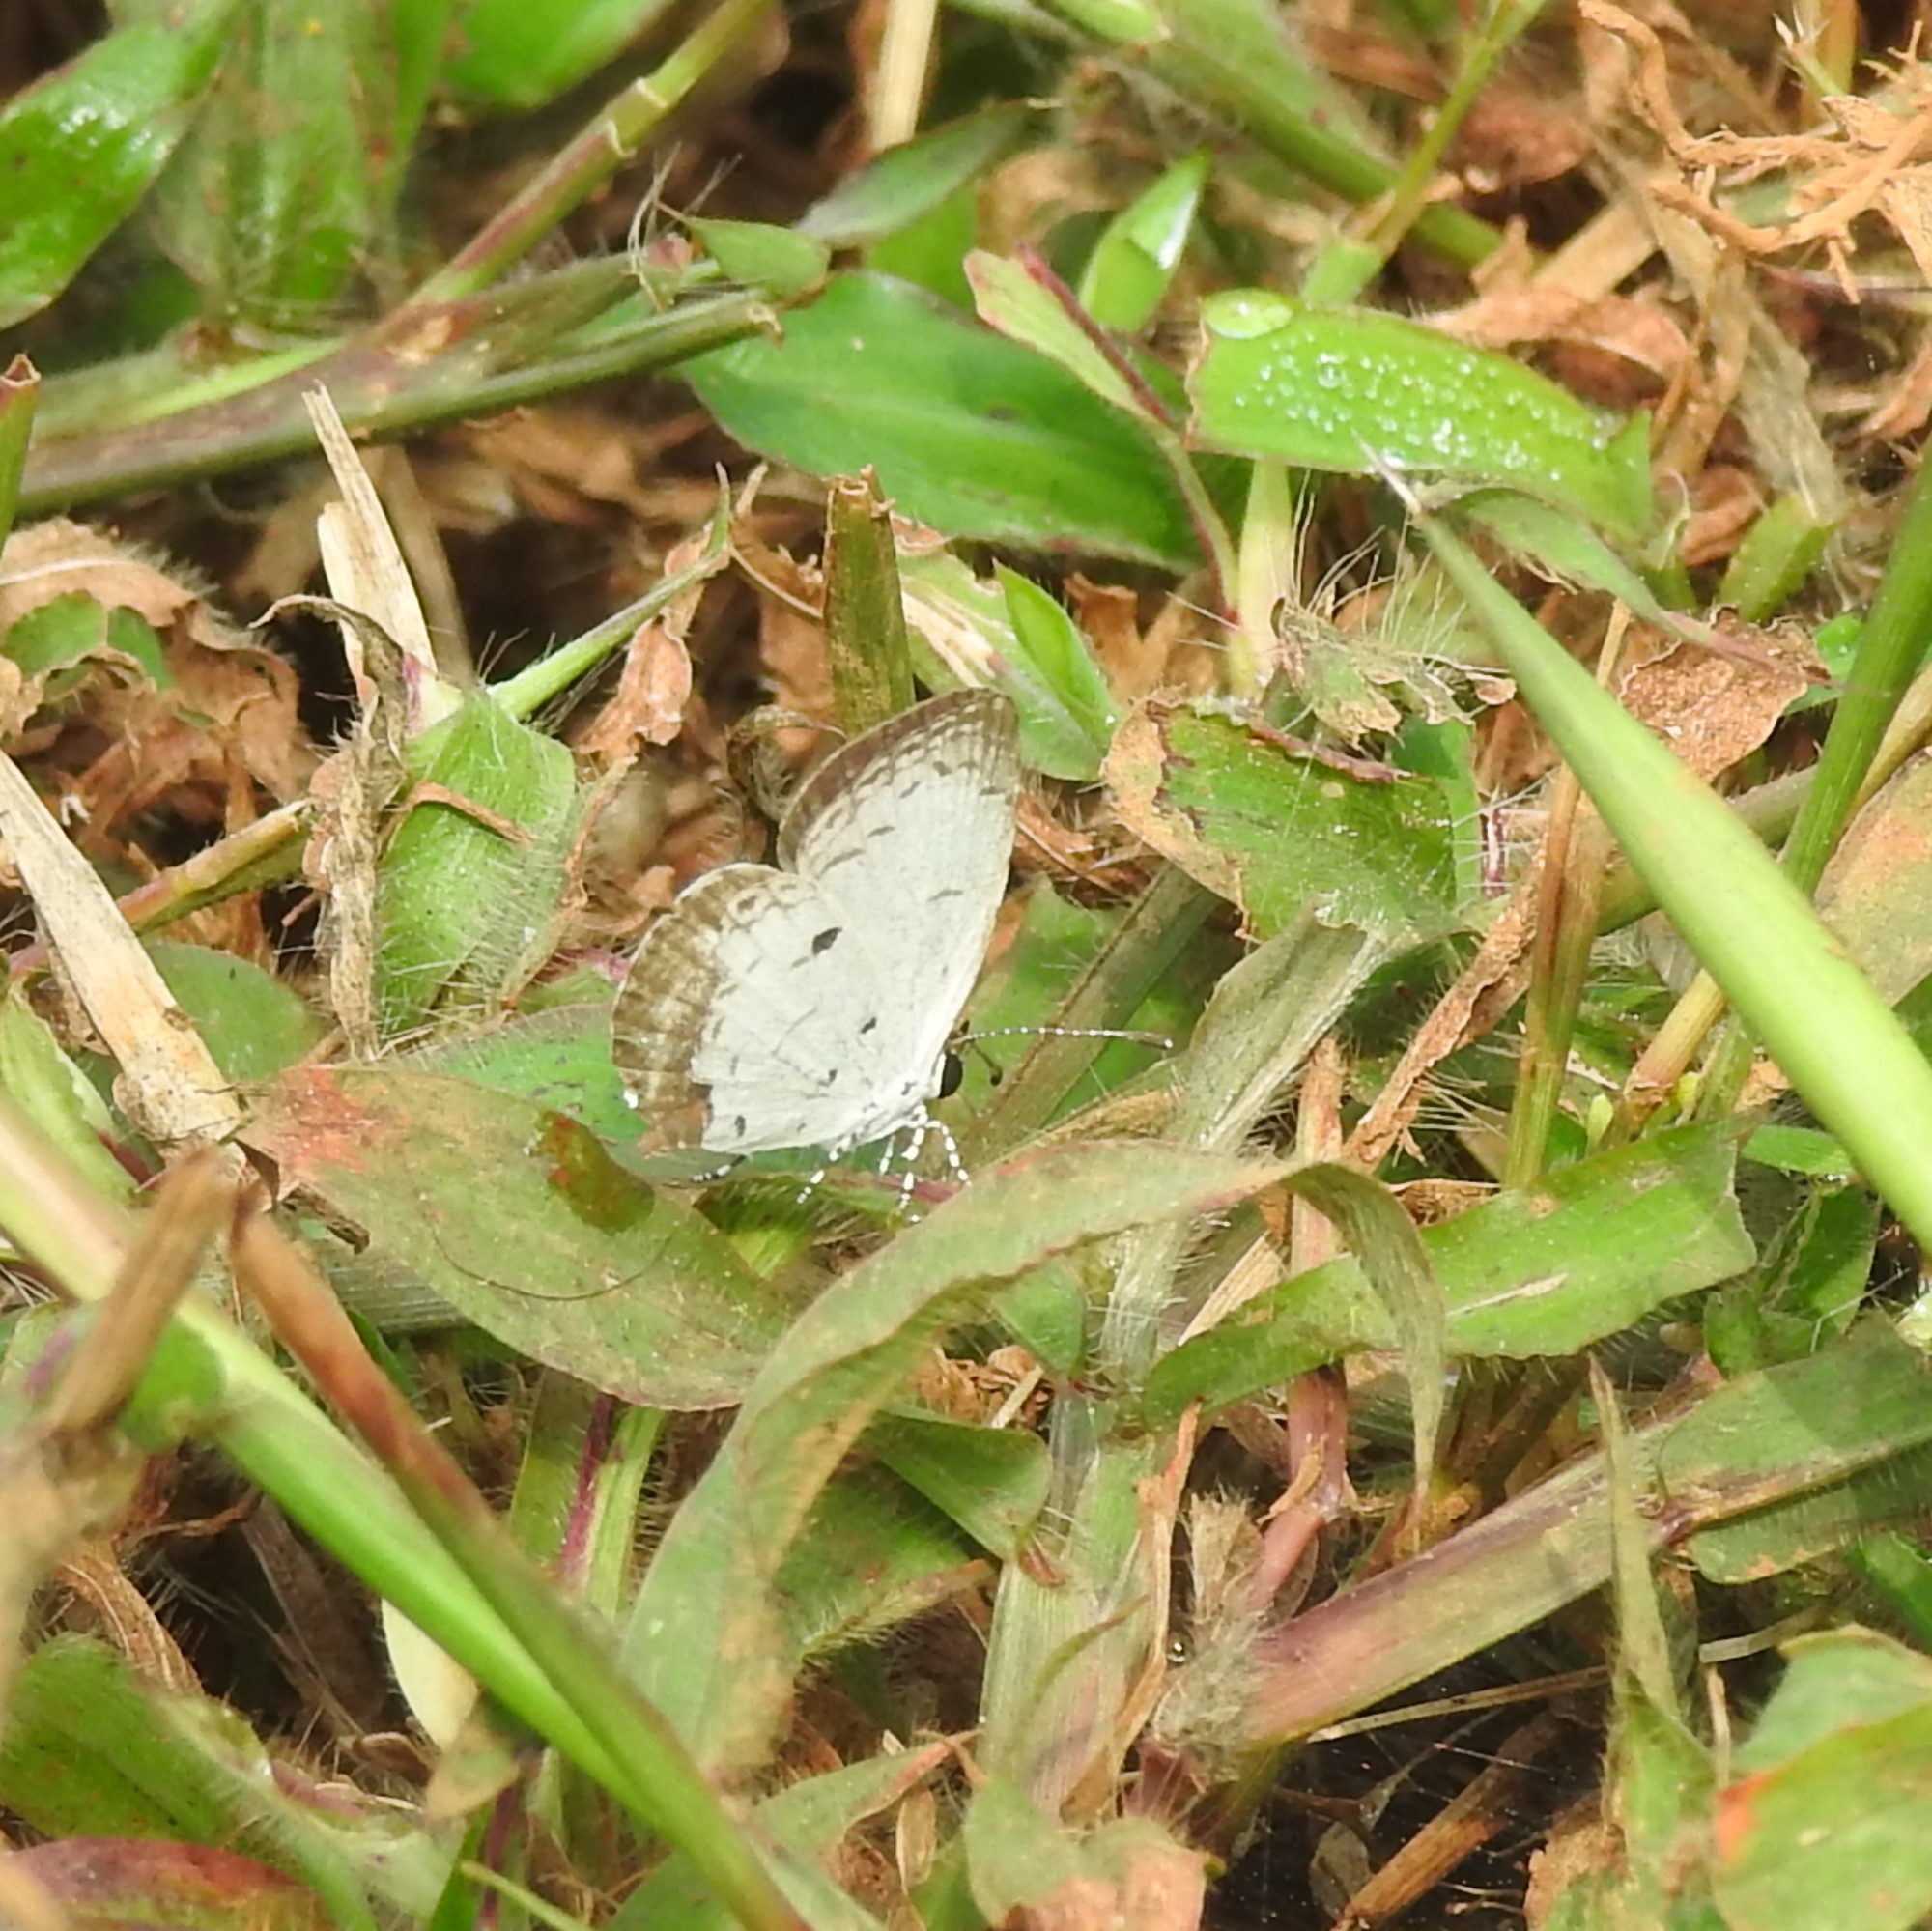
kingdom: Animalia
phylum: Arthropoda
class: Insecta
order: Lepidoptera
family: Lycaenidae
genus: Neopithecops
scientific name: Neopithecops zalmora
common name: Quaker
